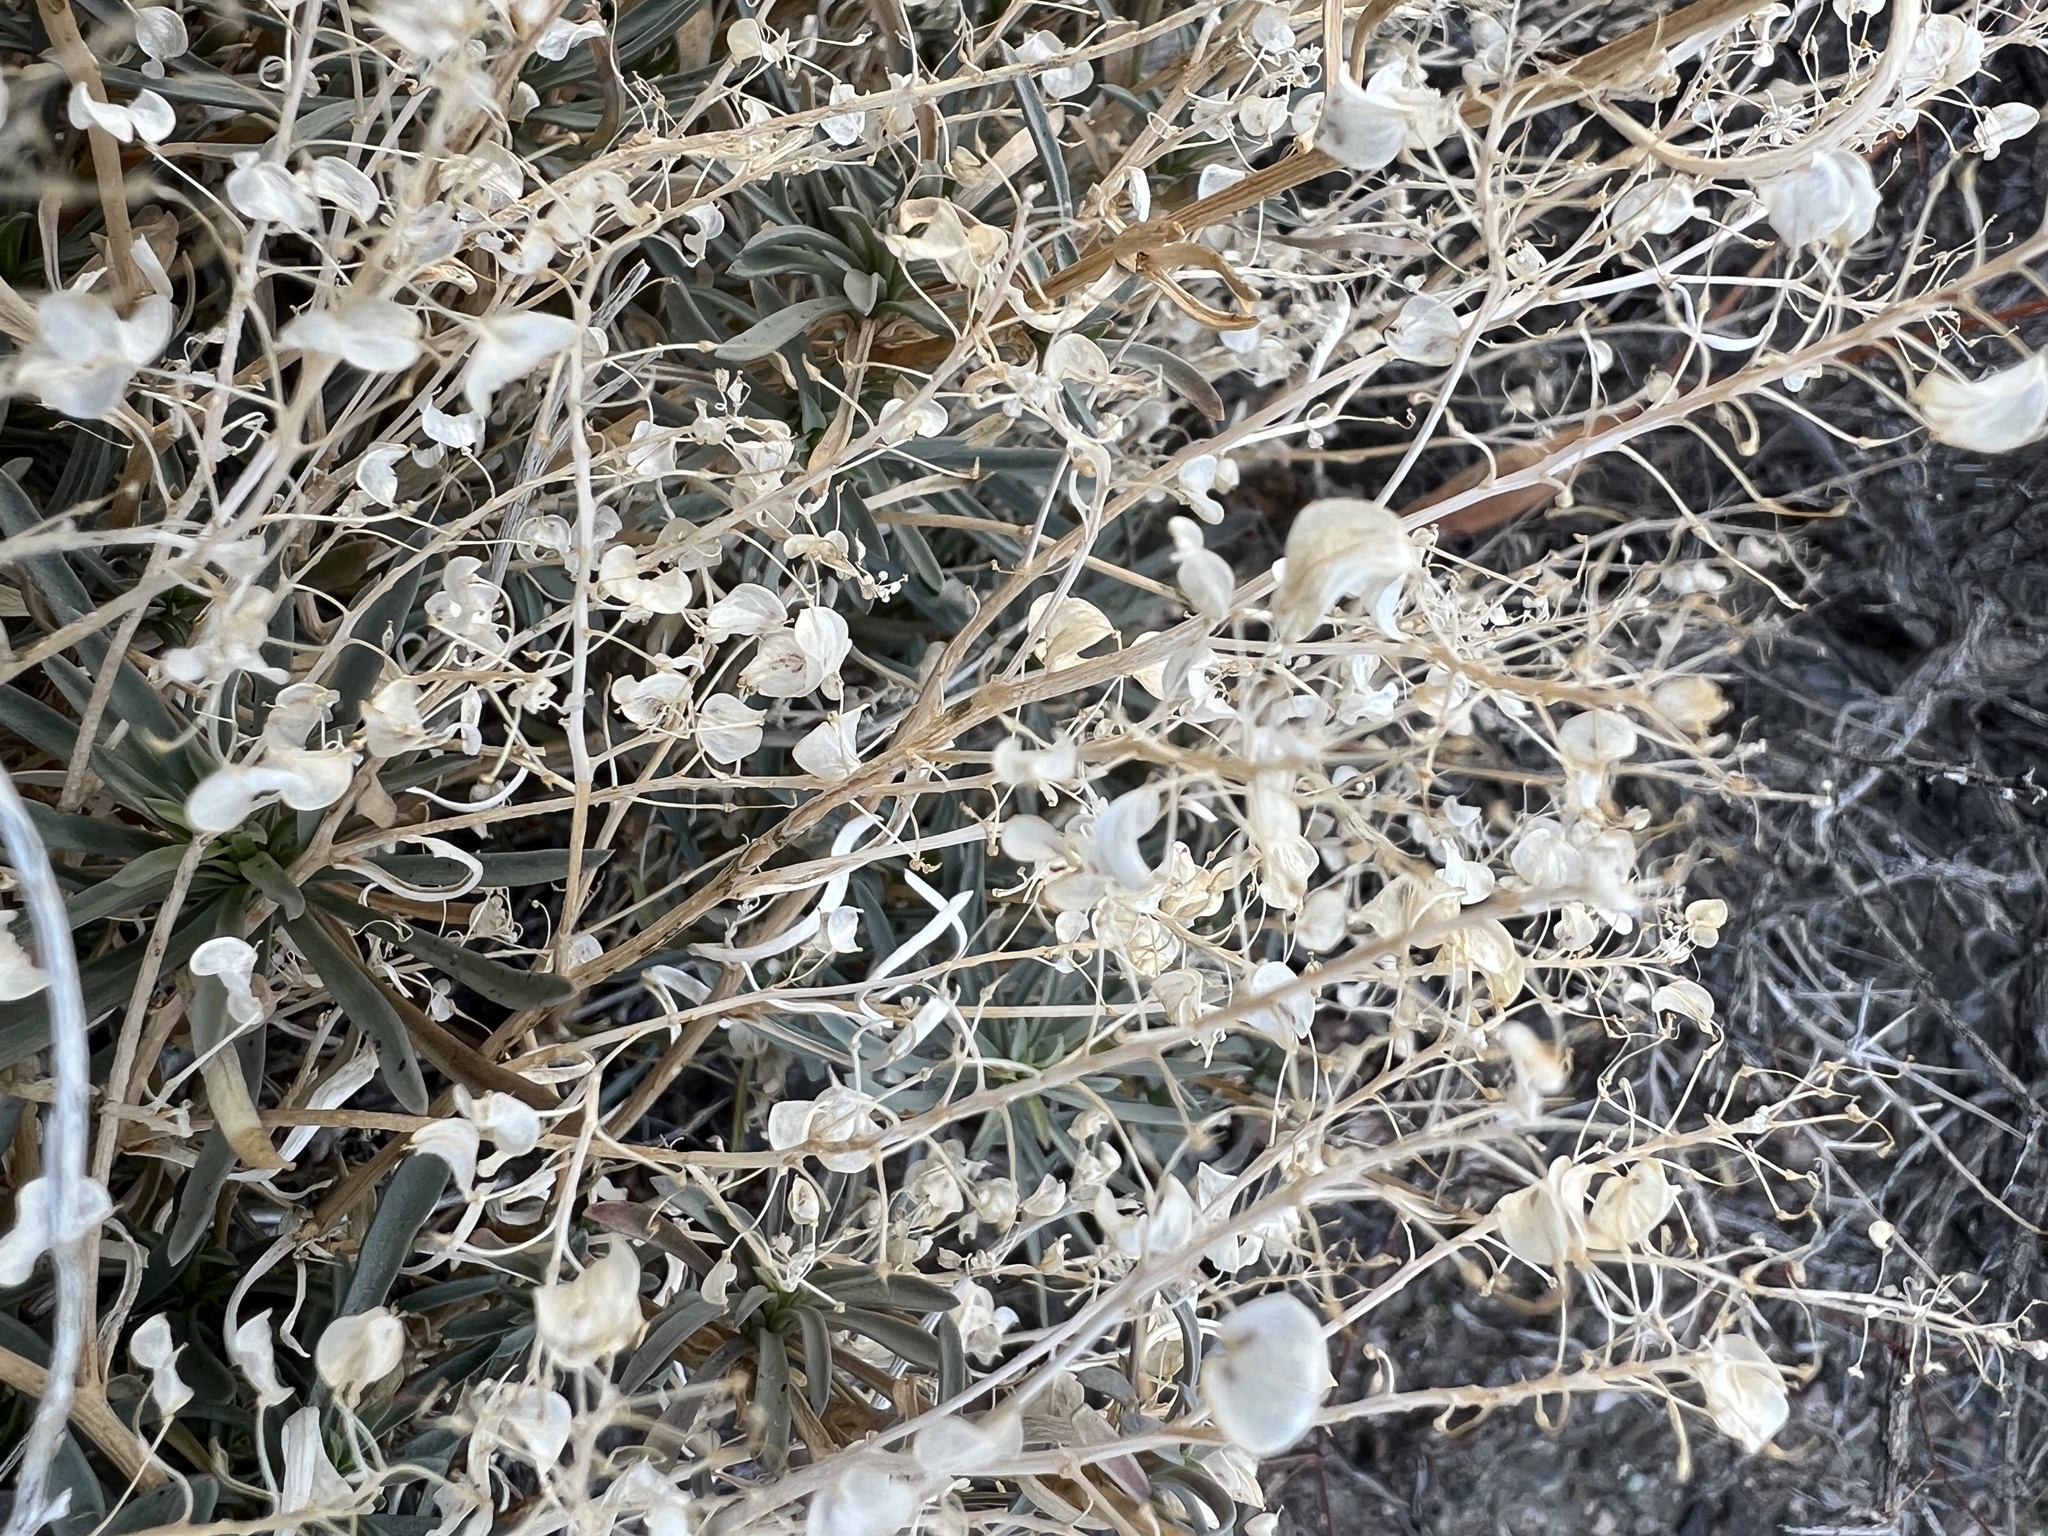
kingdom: Plantae
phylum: Tracheophyta
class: Magnoliopsida
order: Brassicales
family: Brassicaceae
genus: Lepidium
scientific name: Lepidium fremontii
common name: Fremont's pepperwort
